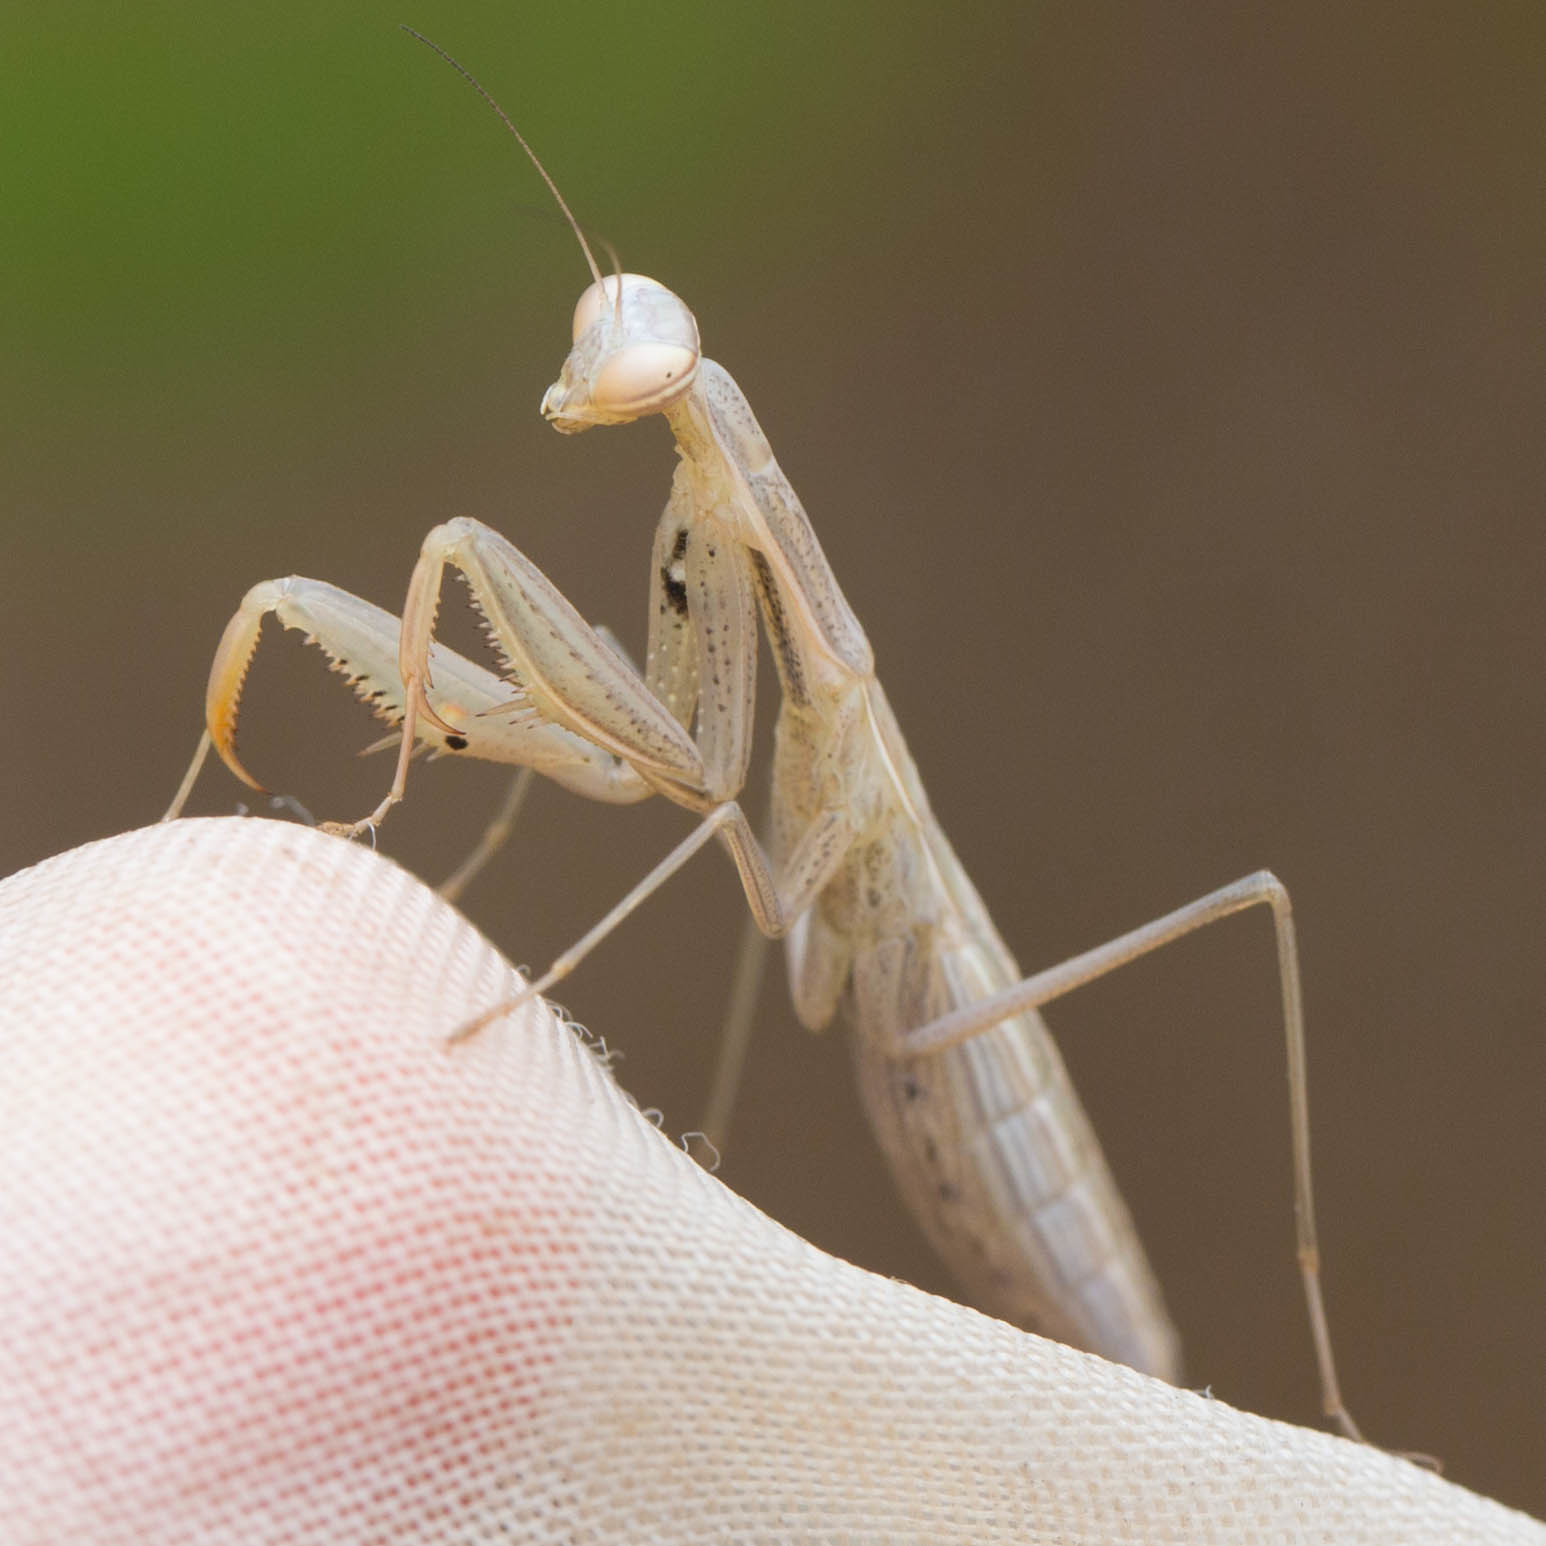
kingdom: Animalia
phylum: Arthropoda
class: Insecta
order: Mantodea
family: Mantidae
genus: Mantis
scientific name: Mantis religiosa
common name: Praying mantis
